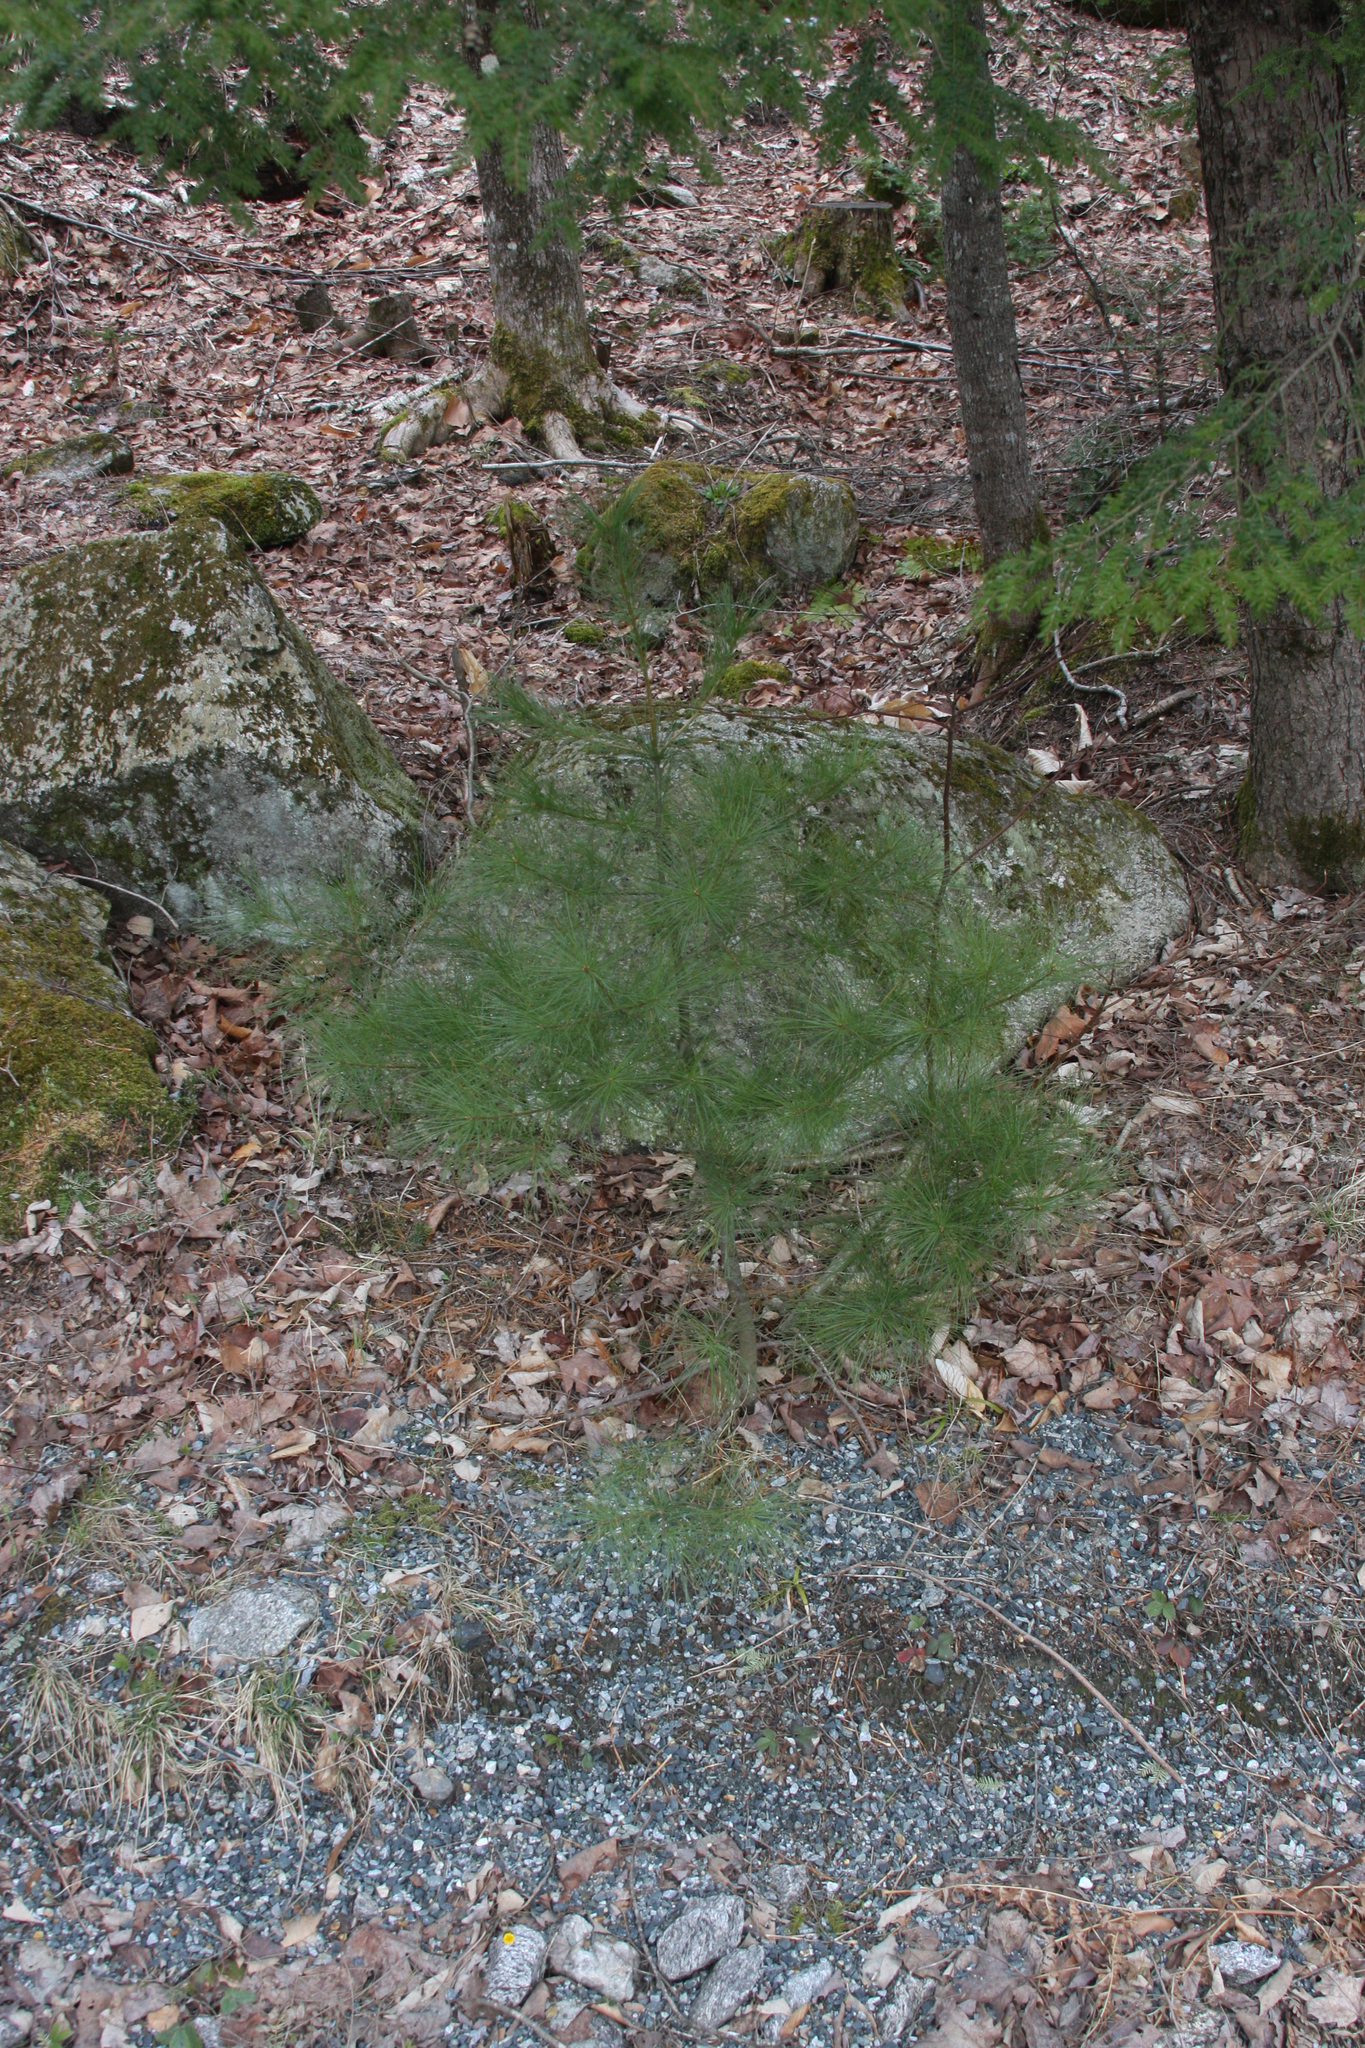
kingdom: Plantae
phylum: Tracheophyta
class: Pinopsida
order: Pinales
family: Pinaceae
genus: Pinus
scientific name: Pinus strobus
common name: Weymouth pine
